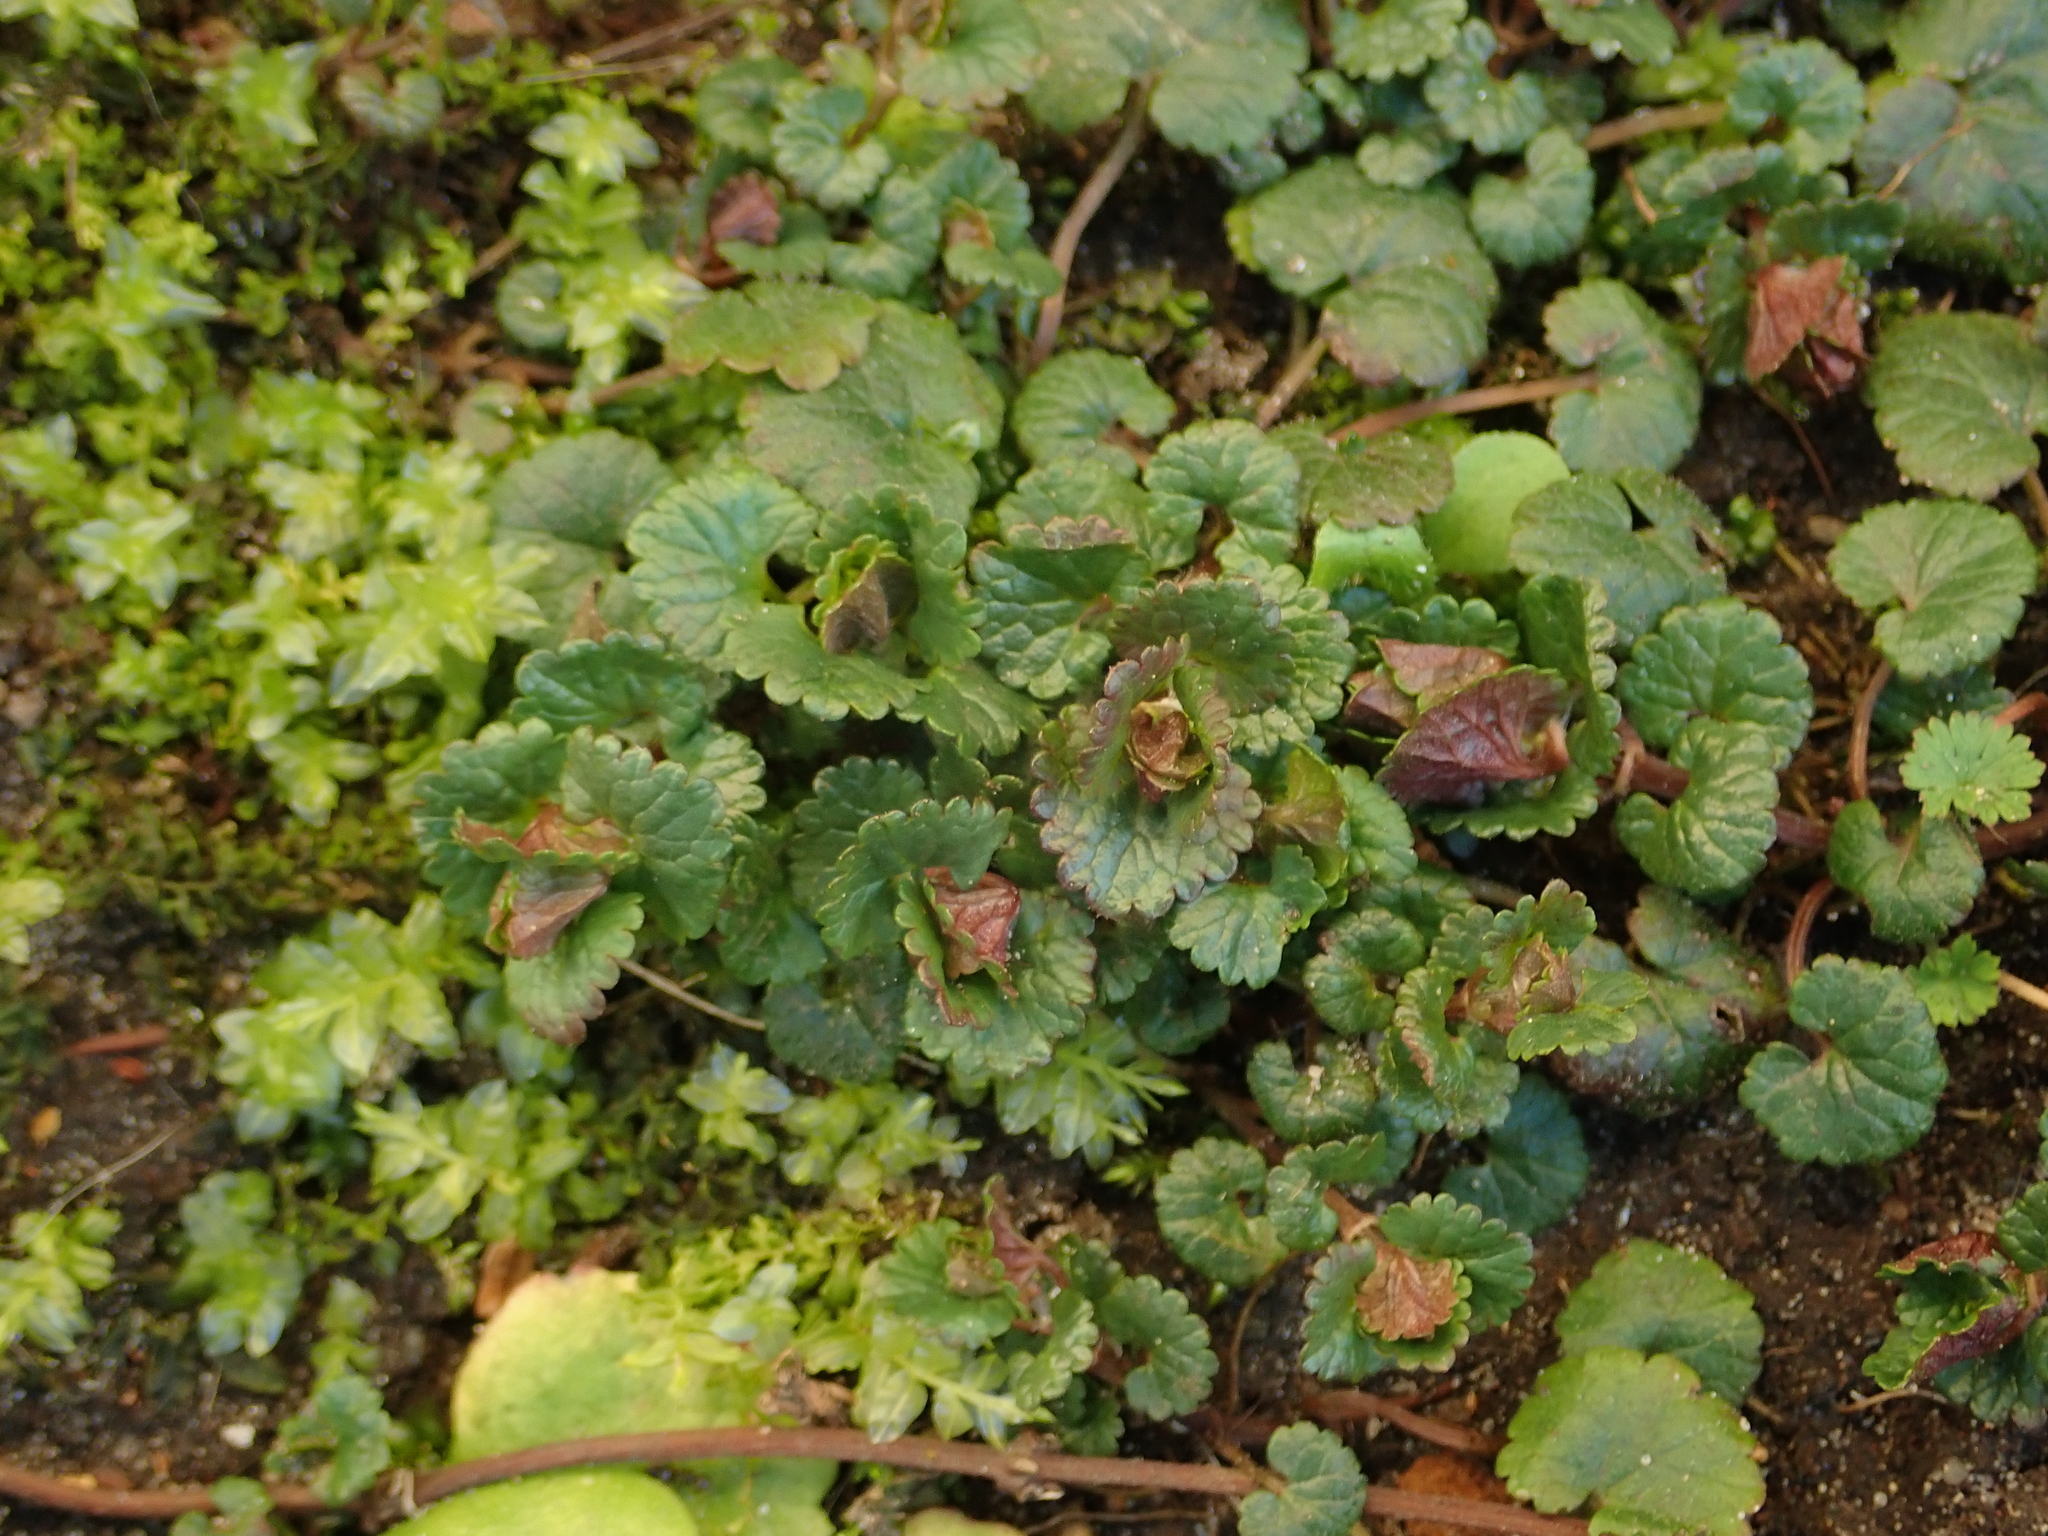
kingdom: Plantae
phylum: Tracheophyta
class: Magnoliopsida
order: Lamiales
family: Lamiaceae
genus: Glechoma
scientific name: Glechoma hederacea
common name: Ground ivy
